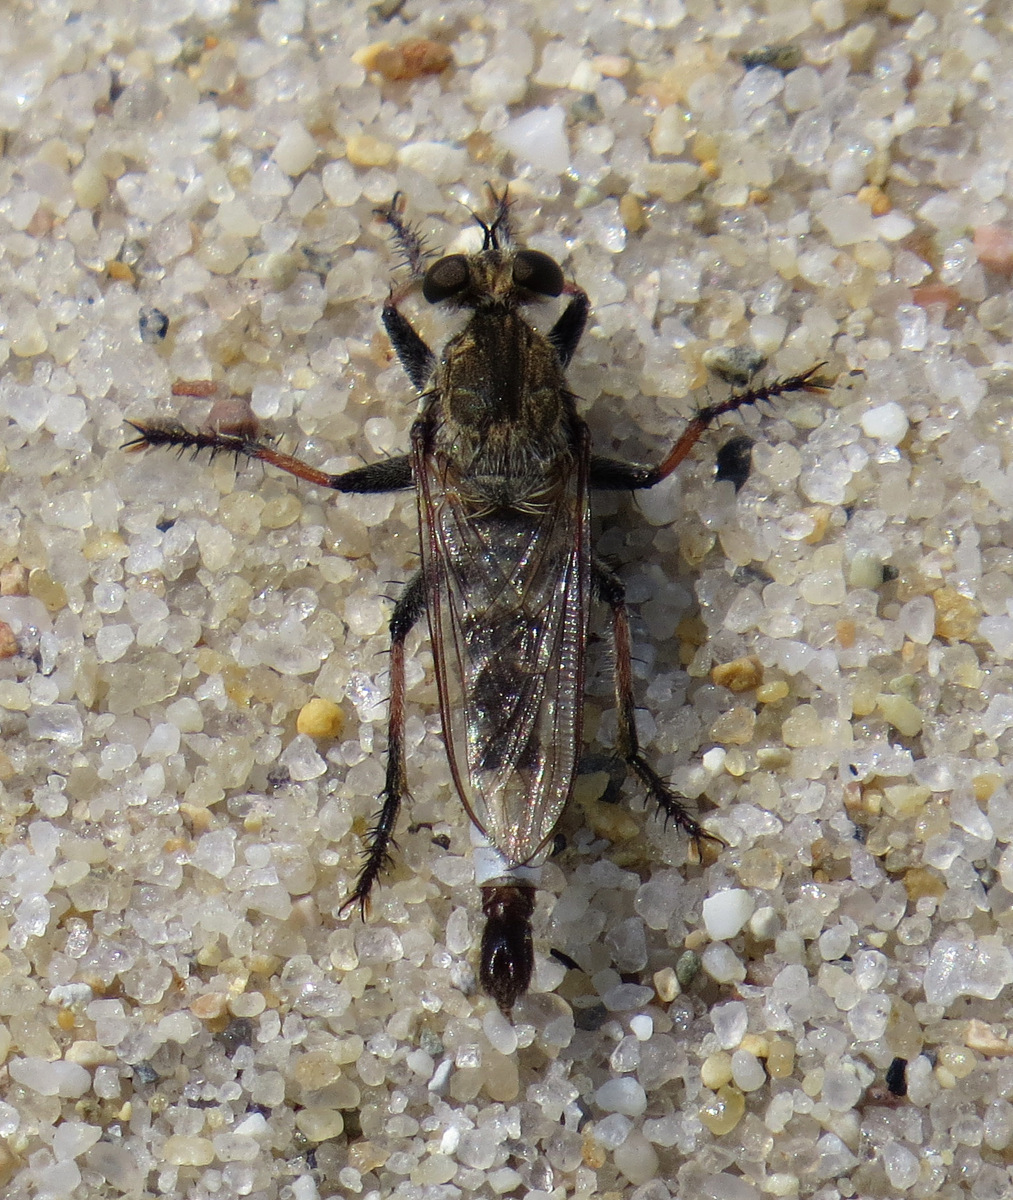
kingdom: Animalia
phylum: Arthropoda
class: Insecta
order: Diptera
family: Asilidae
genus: Efferia
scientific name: Efferia albibarbis
